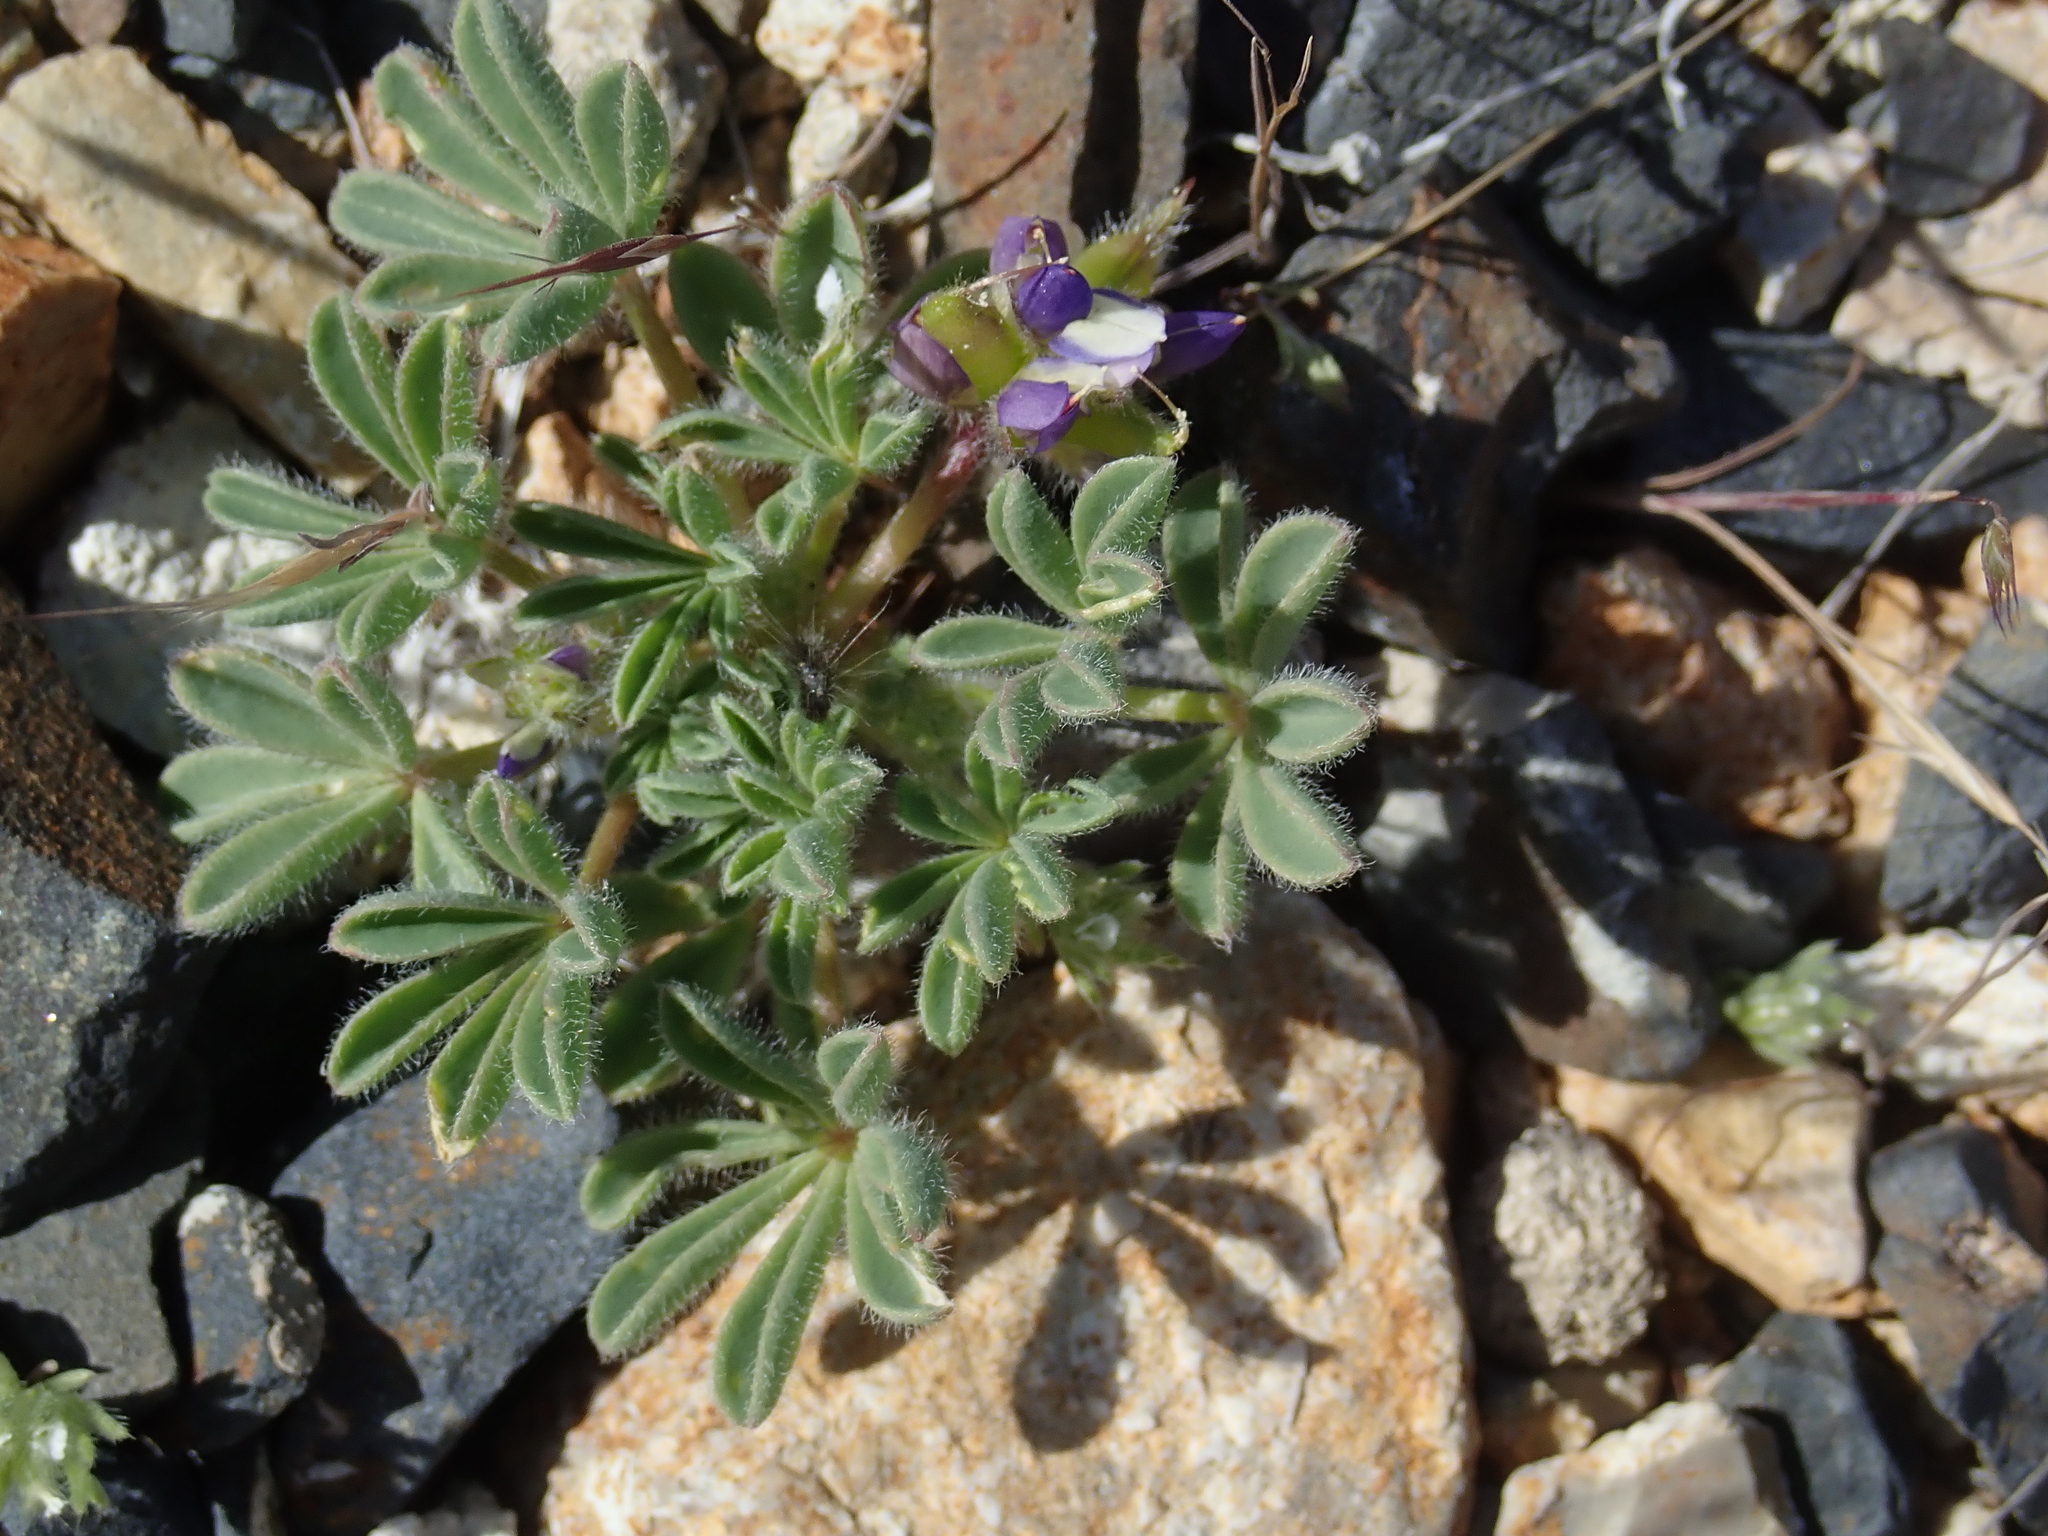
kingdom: Plantae
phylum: Tracheophyta
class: Magnoliopsida
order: Fabales
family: Fabaceae
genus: Lupinus
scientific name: Lupinus brevicaulis
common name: Sand lupine
